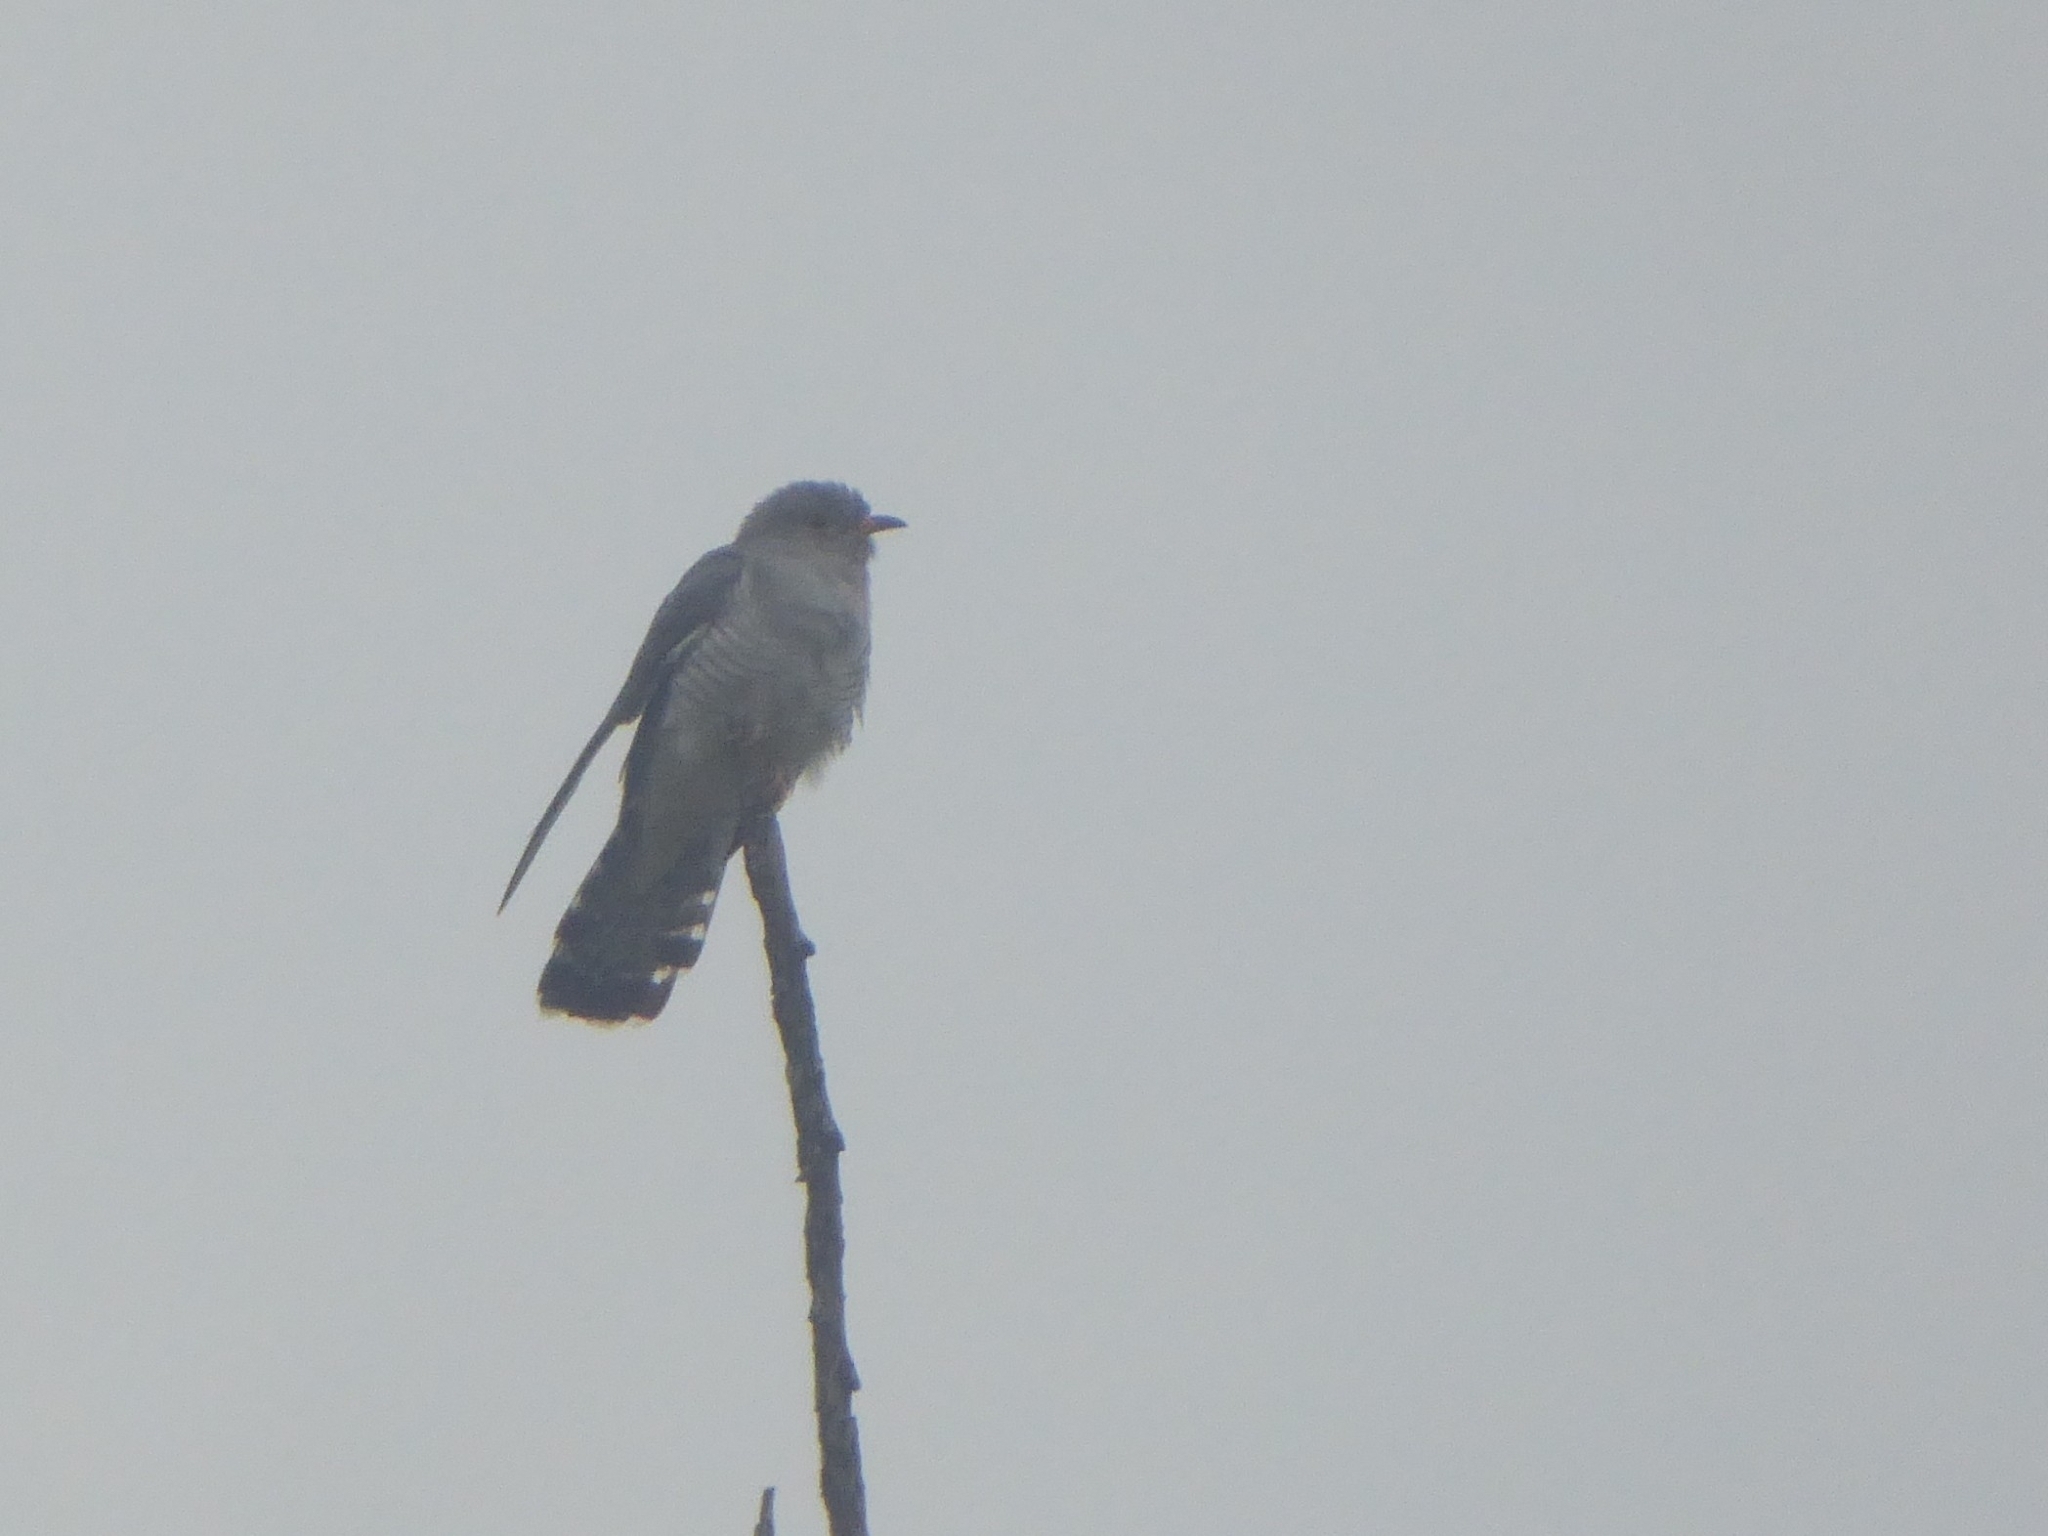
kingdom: Animalia
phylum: Chordata
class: Aves
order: Cuculiformes
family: Cuculidae
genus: Cuculus
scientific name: Cuculus gularis
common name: African cuckoo
